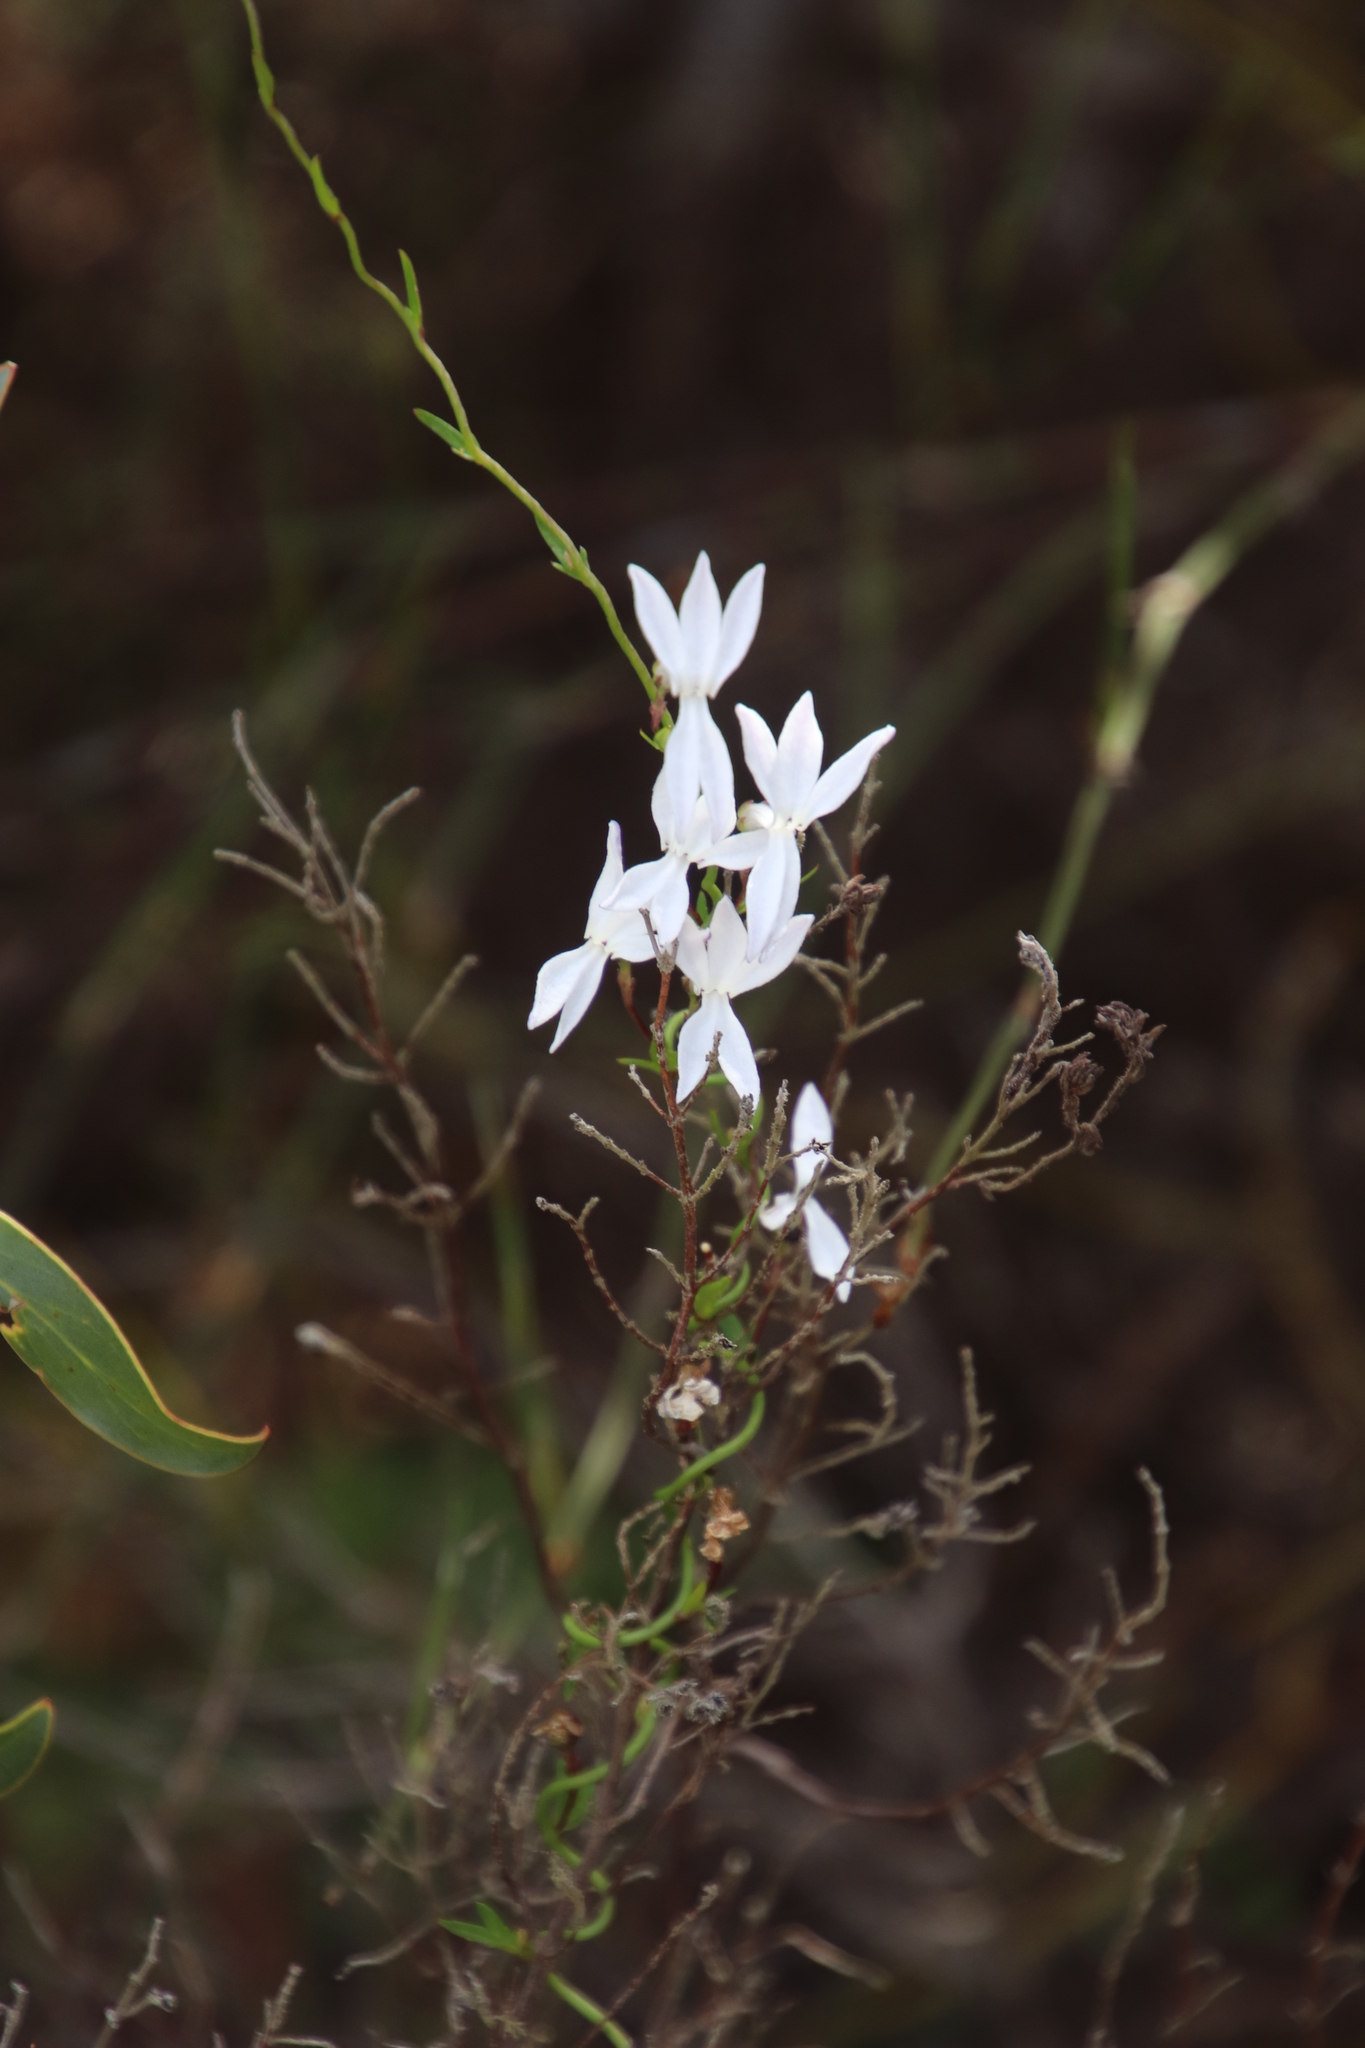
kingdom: Plantae
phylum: Tracheophyta
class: Magnoliopsida
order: Asterales
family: Campanulaceae
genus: Cyphia
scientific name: Cyphia volubilis
